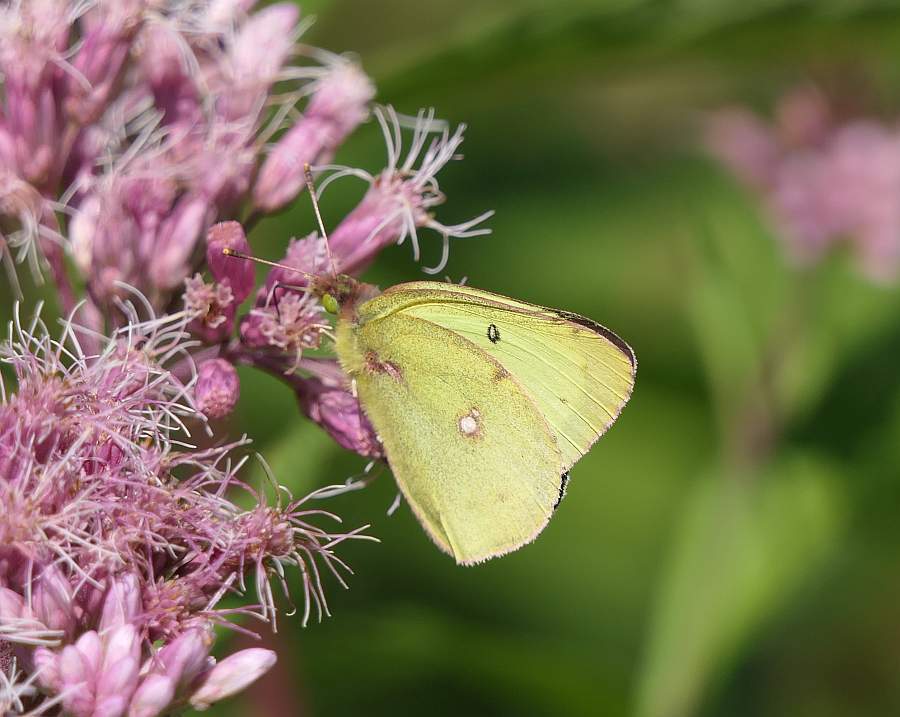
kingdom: Animalia
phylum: Arthropoda
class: Insecta
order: Lepidoptera
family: Pieridae
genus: Colias
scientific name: Colias philodice
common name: Clouded sulphur
